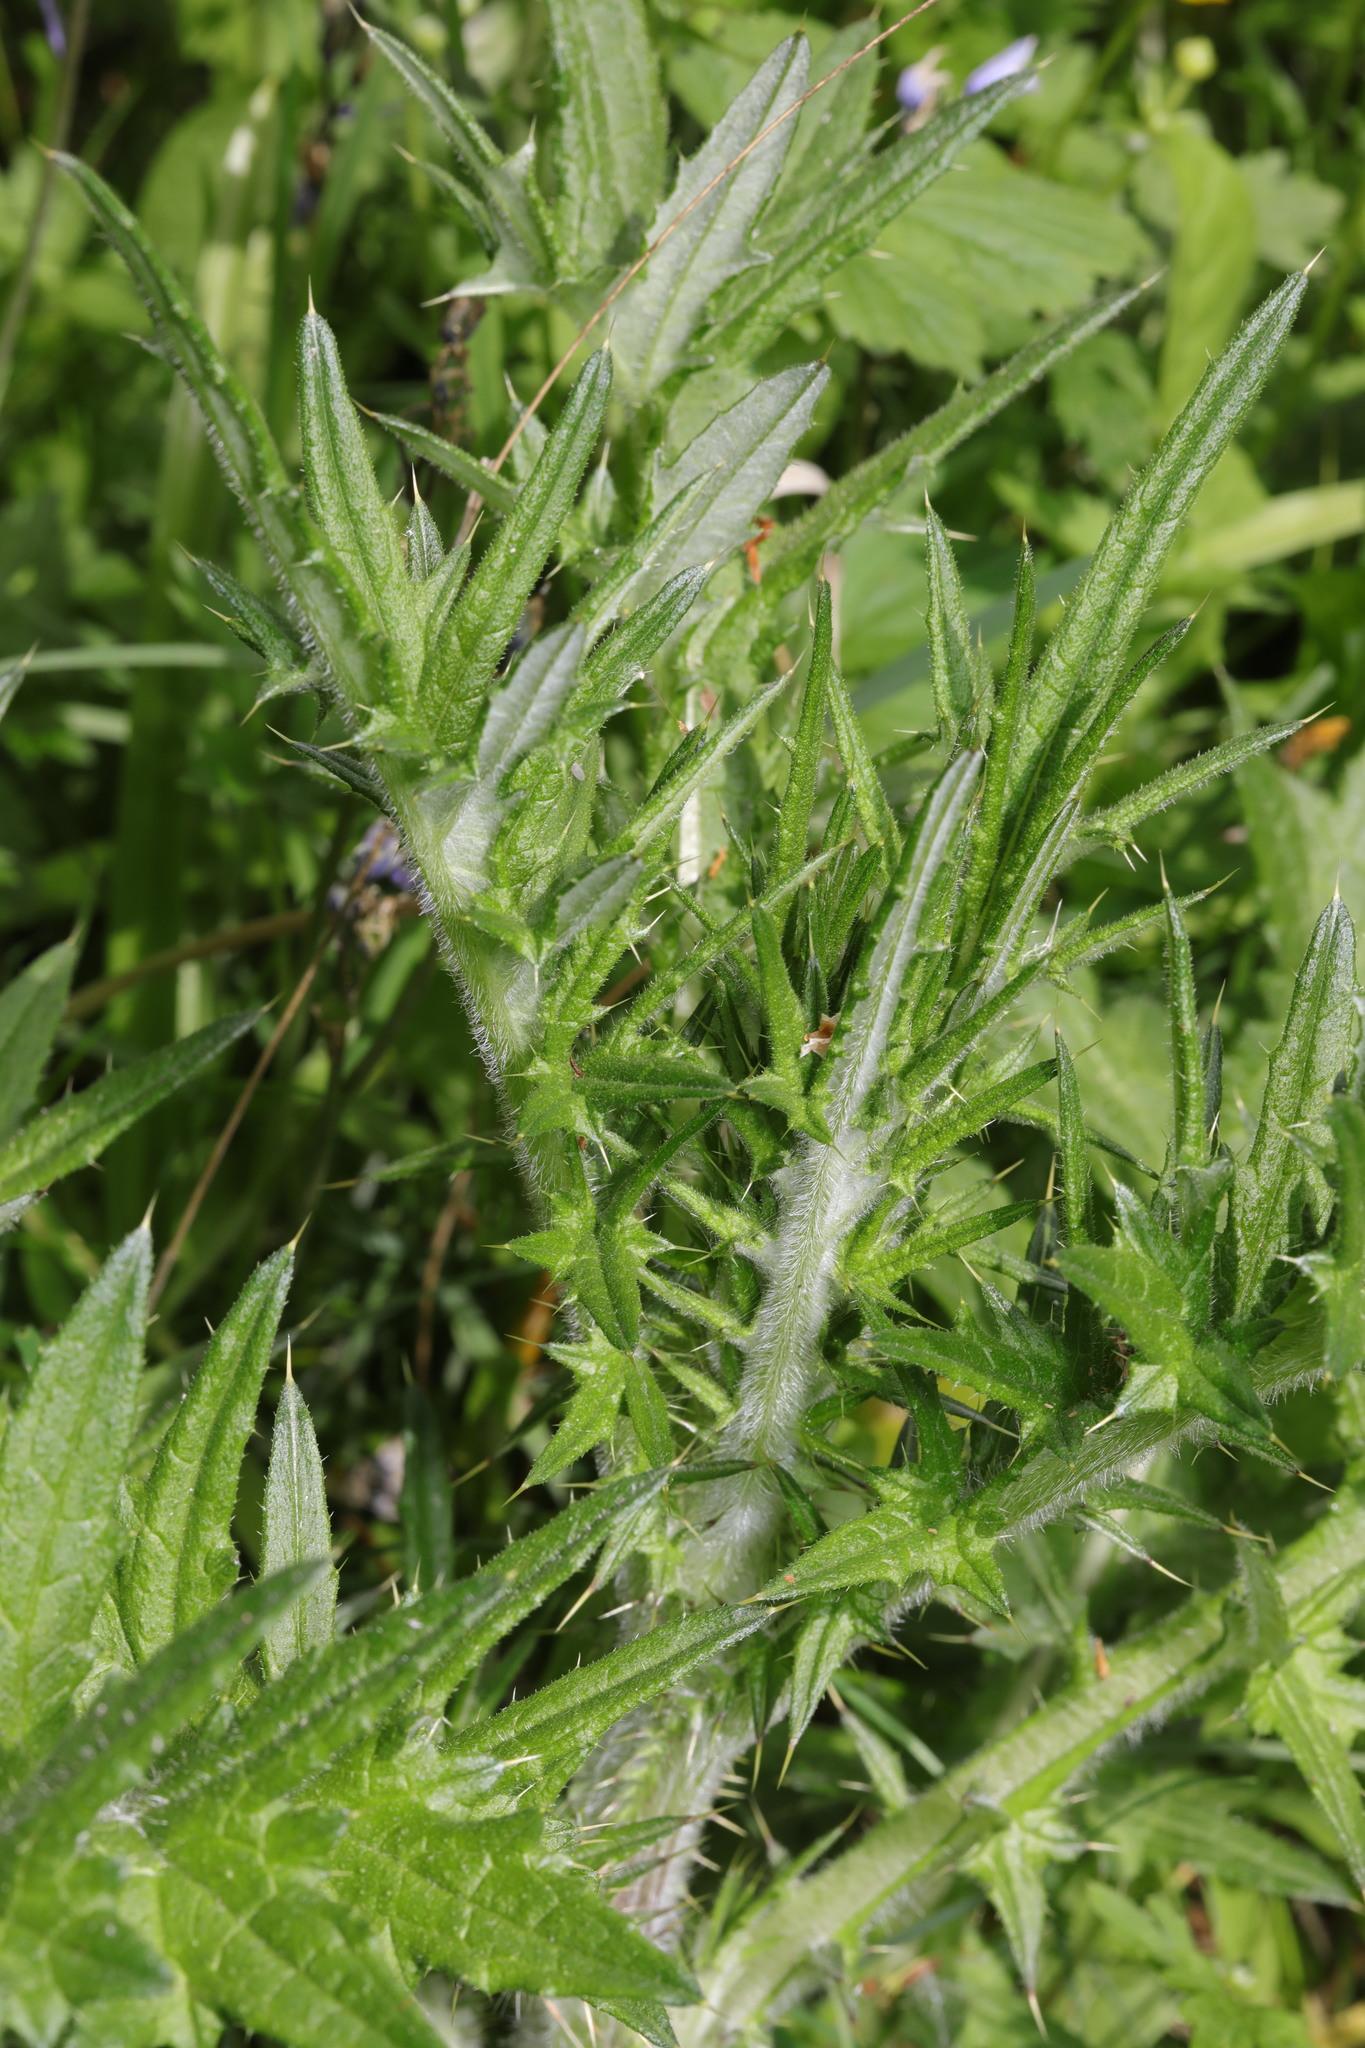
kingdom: Plantae
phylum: Tracheophyta
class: Magnoliopsida
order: Asterales
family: Asteraceae
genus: Cirsium
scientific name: Cirsium vulgare
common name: Bull thistle
